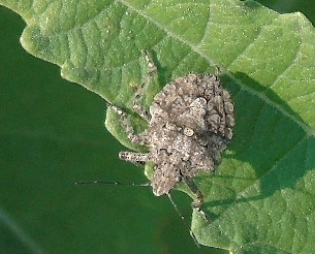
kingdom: Animalia
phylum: Arthropoda
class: Insecta
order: Hemiptera
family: Pentatomidae
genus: Brochymena
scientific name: Brochymena
